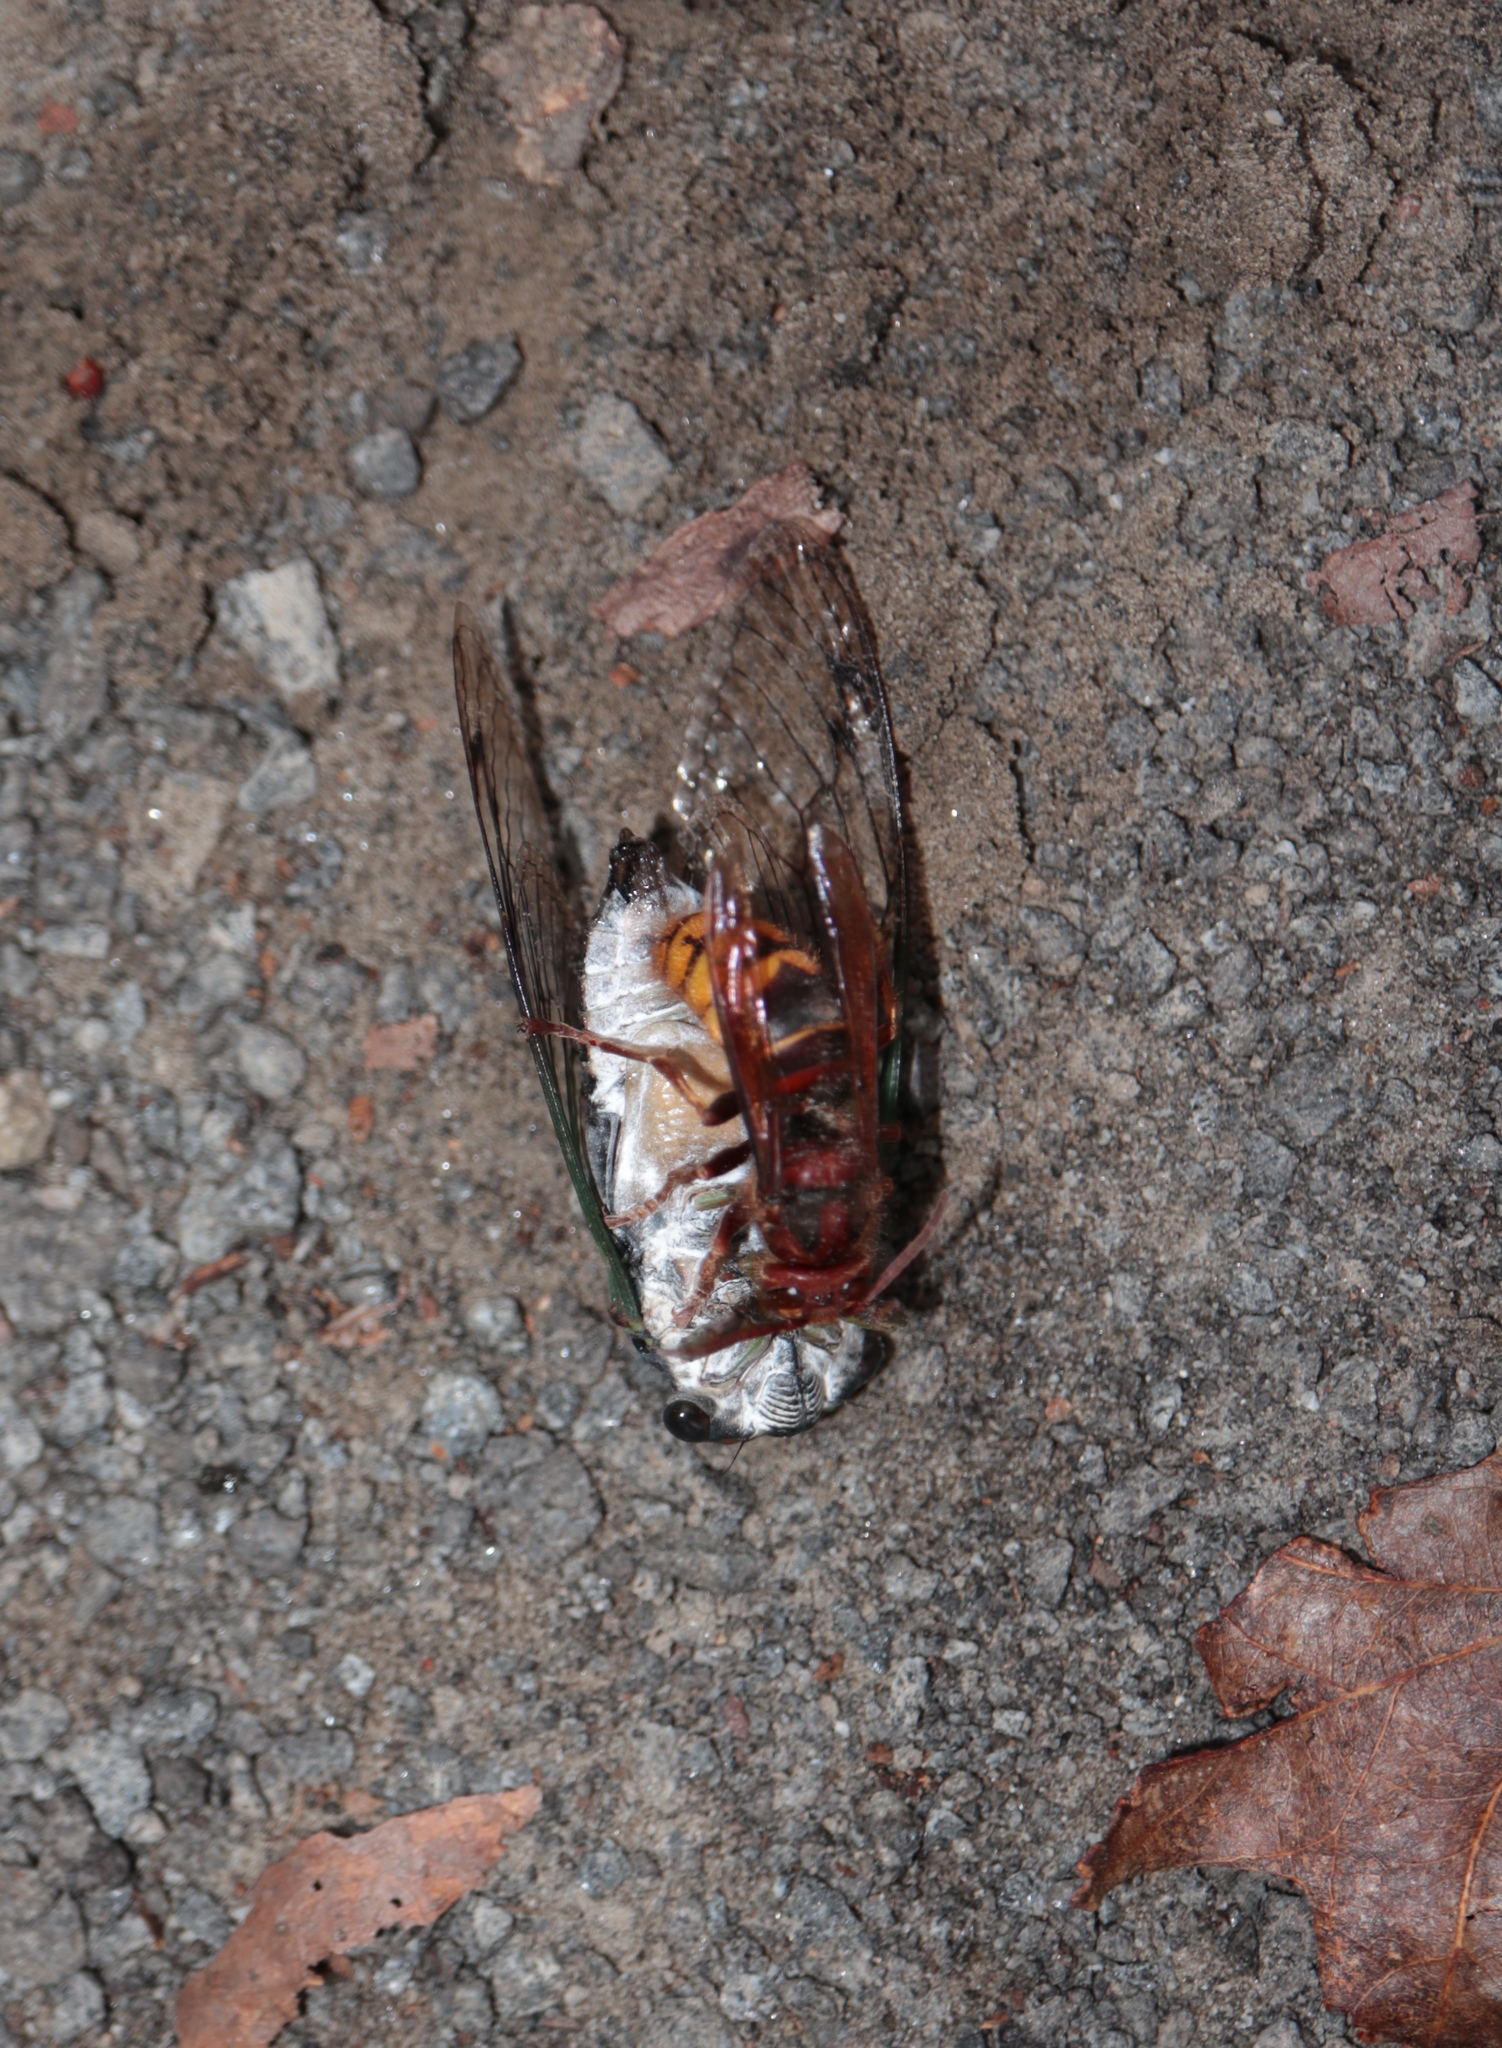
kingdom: Animalia
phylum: Arthropoda
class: Insecta
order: Hemiptera
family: Cicadidae
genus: Neotibicen
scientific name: Neotibicen tibicen
